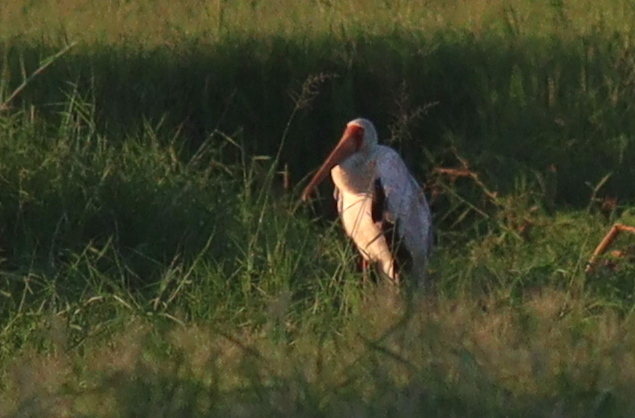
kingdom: Animalia
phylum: Chordata
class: Aves
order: Ciconiiformes
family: Ciconiidae
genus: Mycteria
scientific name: Mycteria ibis
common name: Yellow-billed stork
